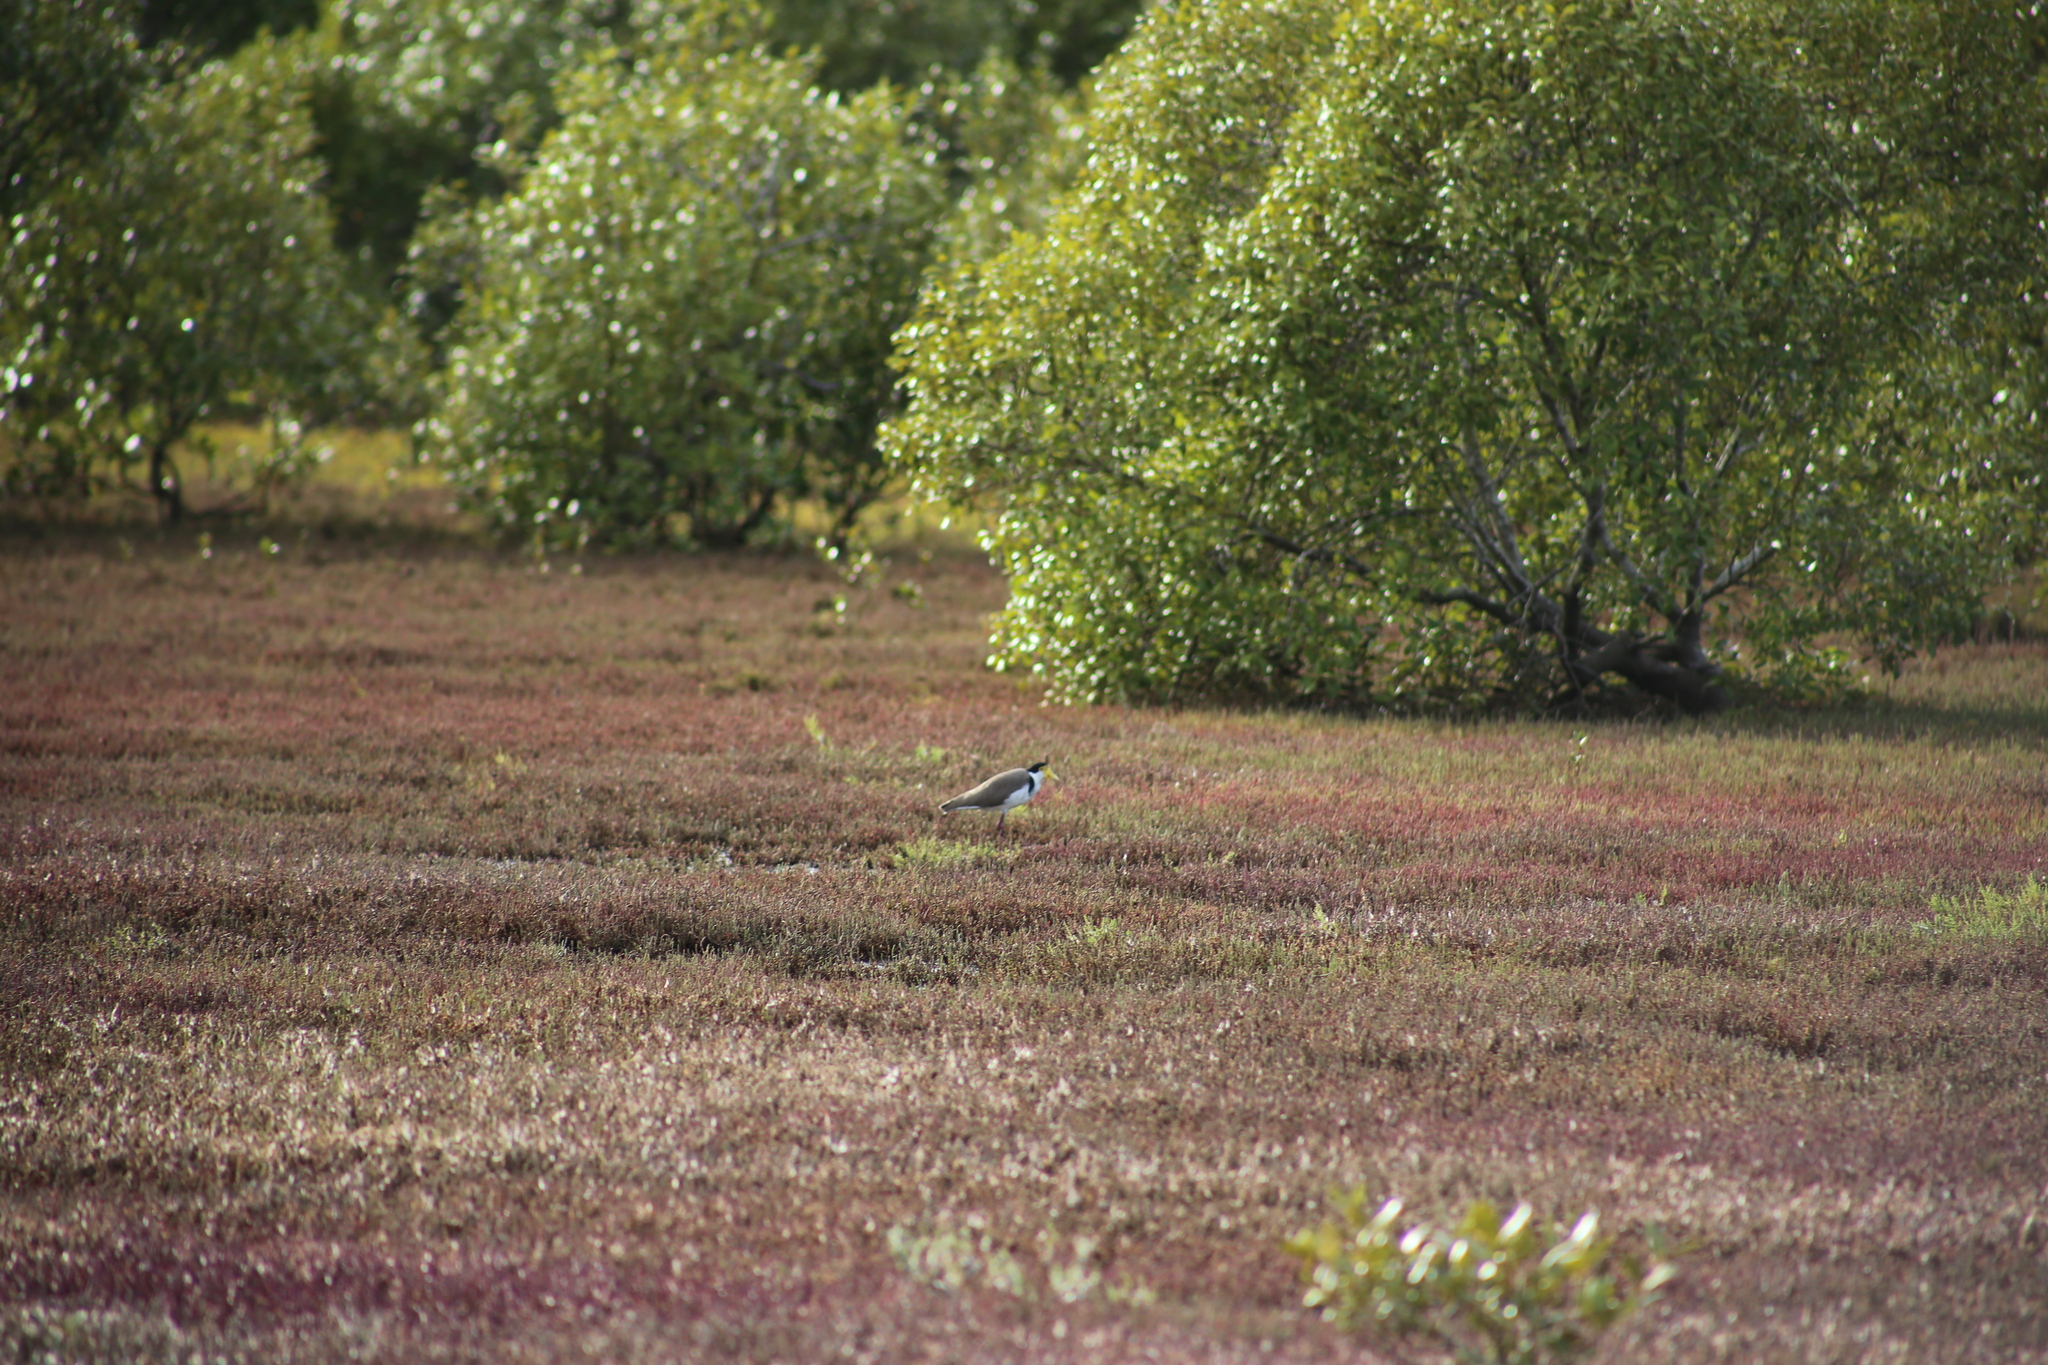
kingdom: Animalia
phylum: Chordata
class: Aves
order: Charadriiformes
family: Charadriidae
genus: Vanellus
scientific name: Vanellus miles
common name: Masked lapwing
